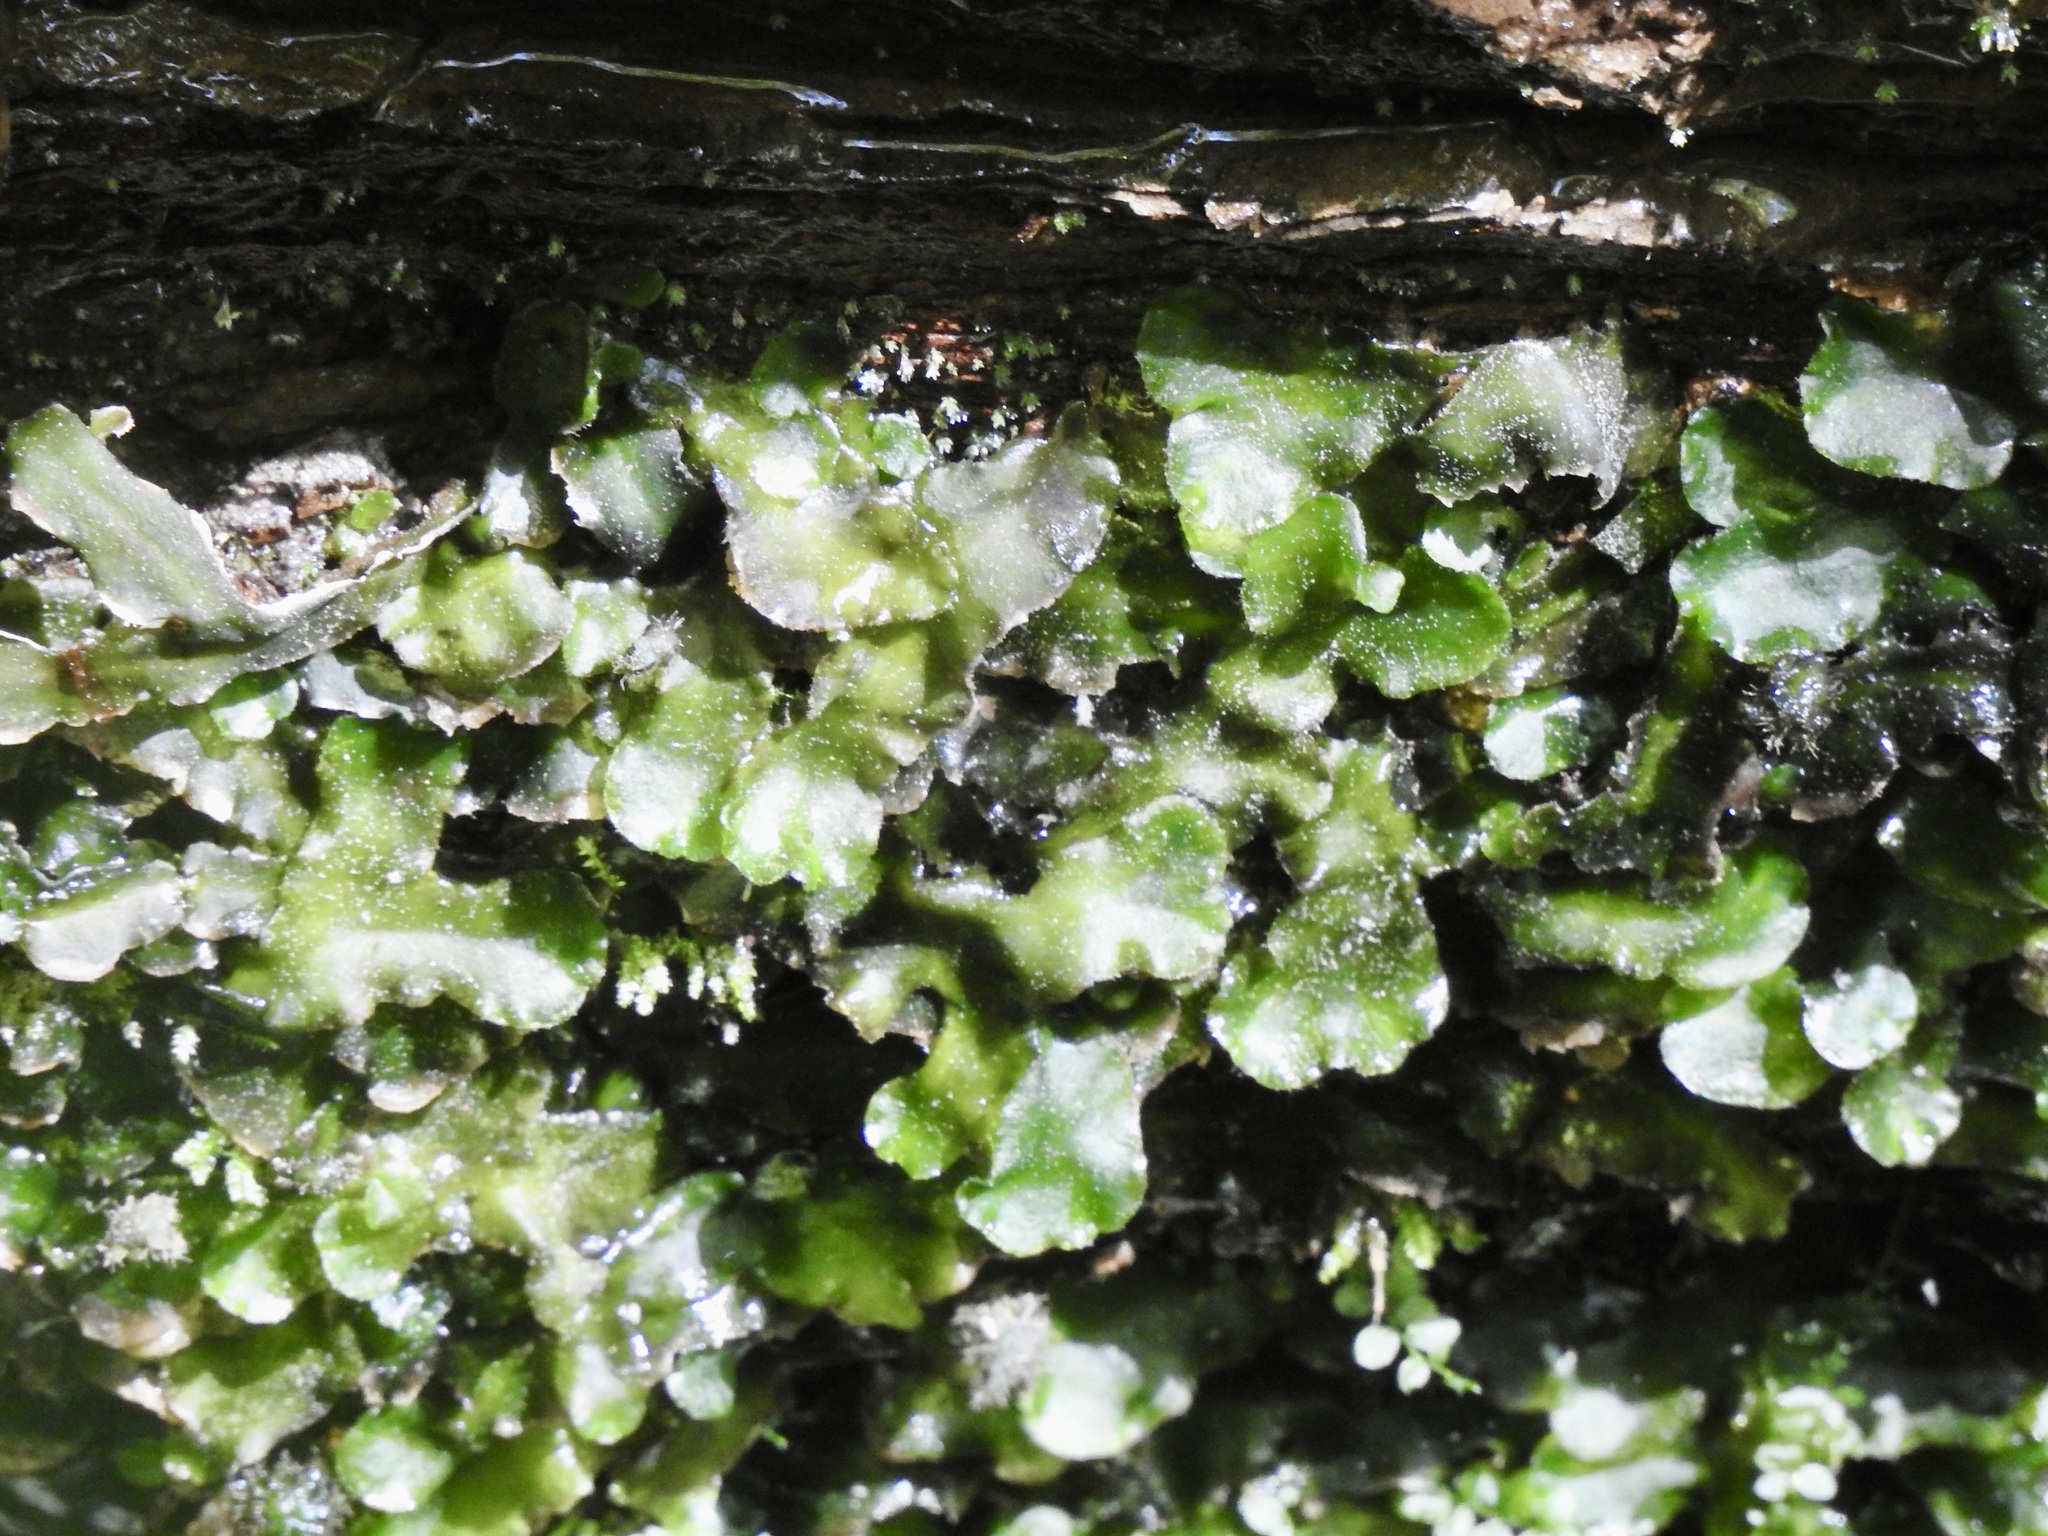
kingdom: Plantae
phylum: Marchantiophyta
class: Marchantiopsida
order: Marchantiales
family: Dumortieraceae
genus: Dumortiera
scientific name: Dumortiera hirsuta
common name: Dumortier's liverwort
